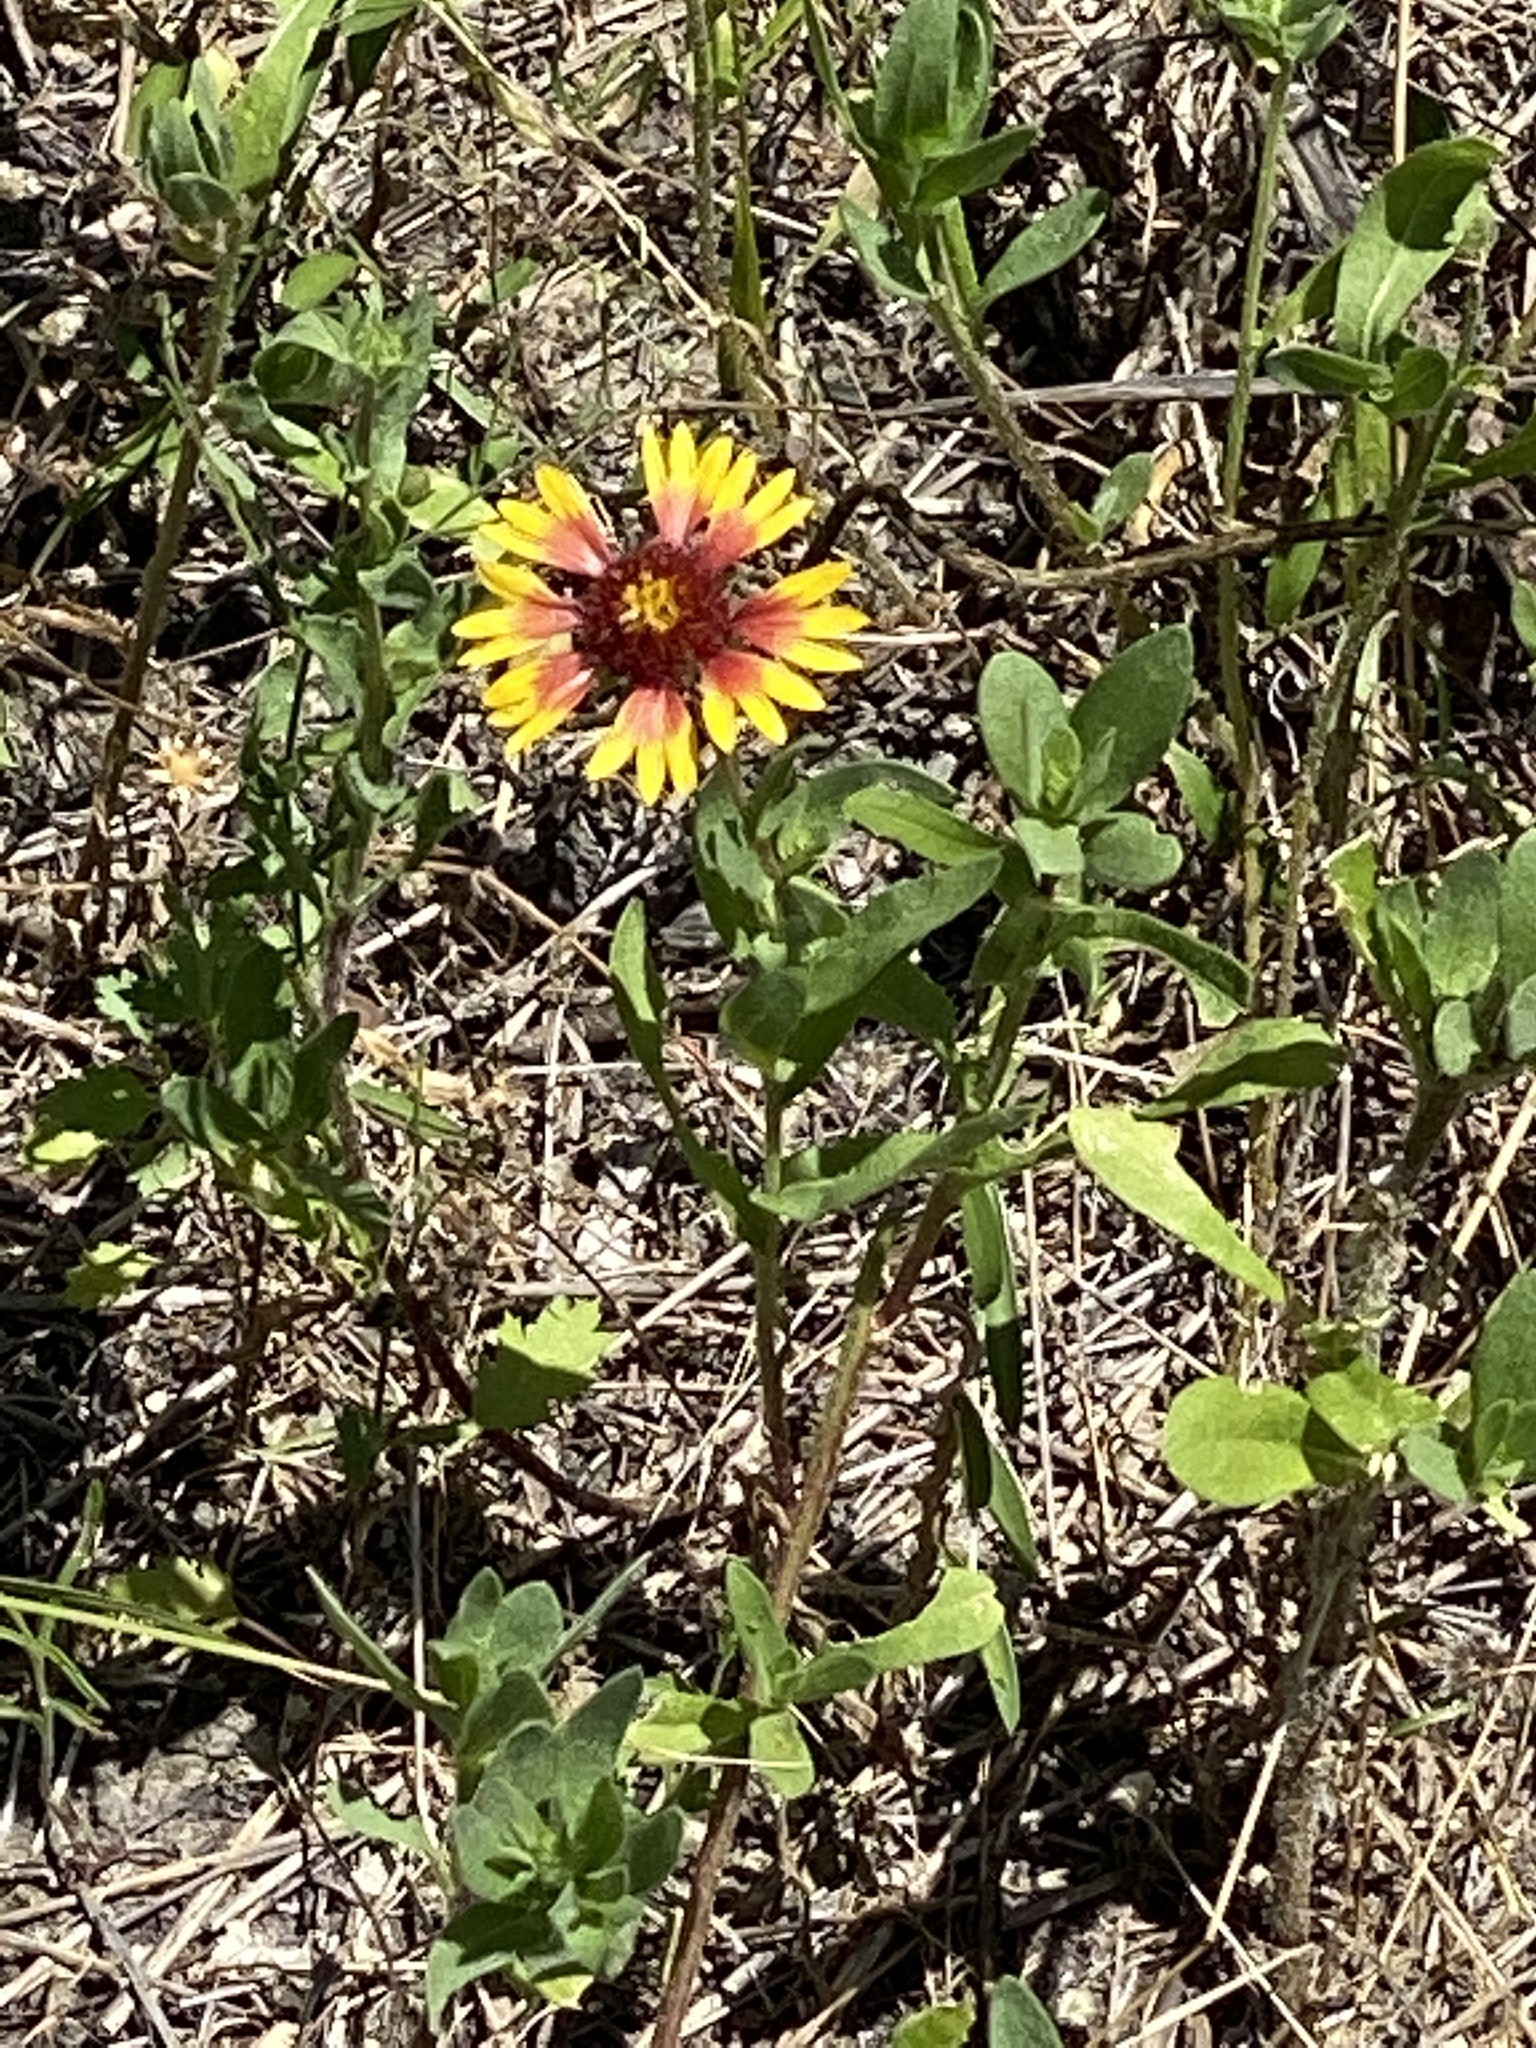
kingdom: Plantae
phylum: Tracheophyta
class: Magnoliopsida
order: Asterales
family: Asteraceae
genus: Gaillardia
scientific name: Gaillardia pulchella
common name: Firewheel
